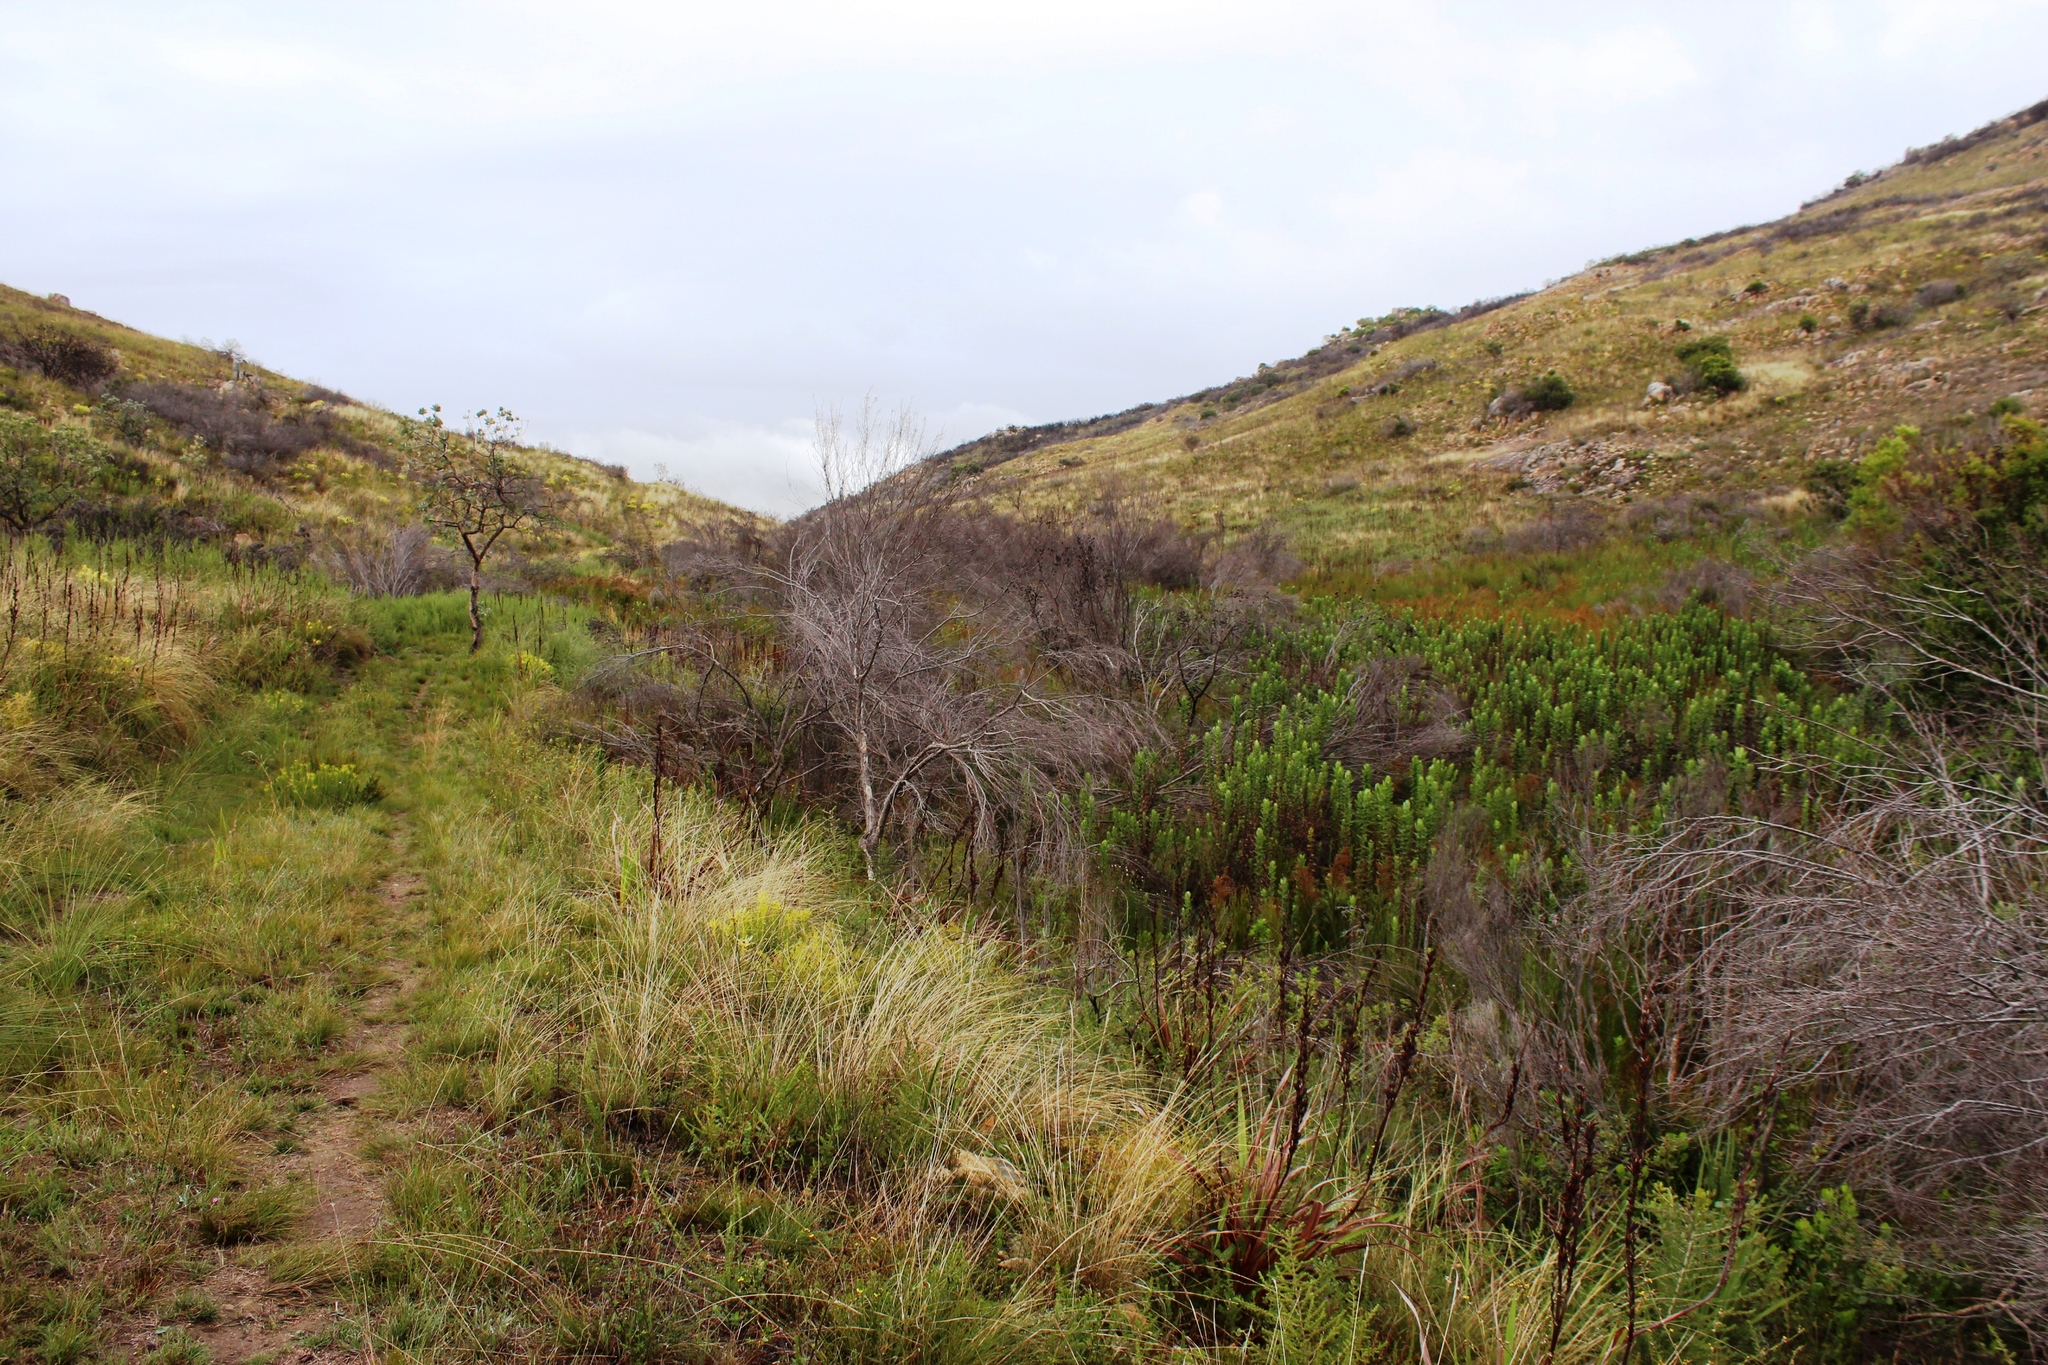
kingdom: Plantae
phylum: Tracheophyta
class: Magnoliopsida
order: Proteales
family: Proteaceae
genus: Leucadendron
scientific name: Leucadendron salicifolium
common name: Common stream conebush
